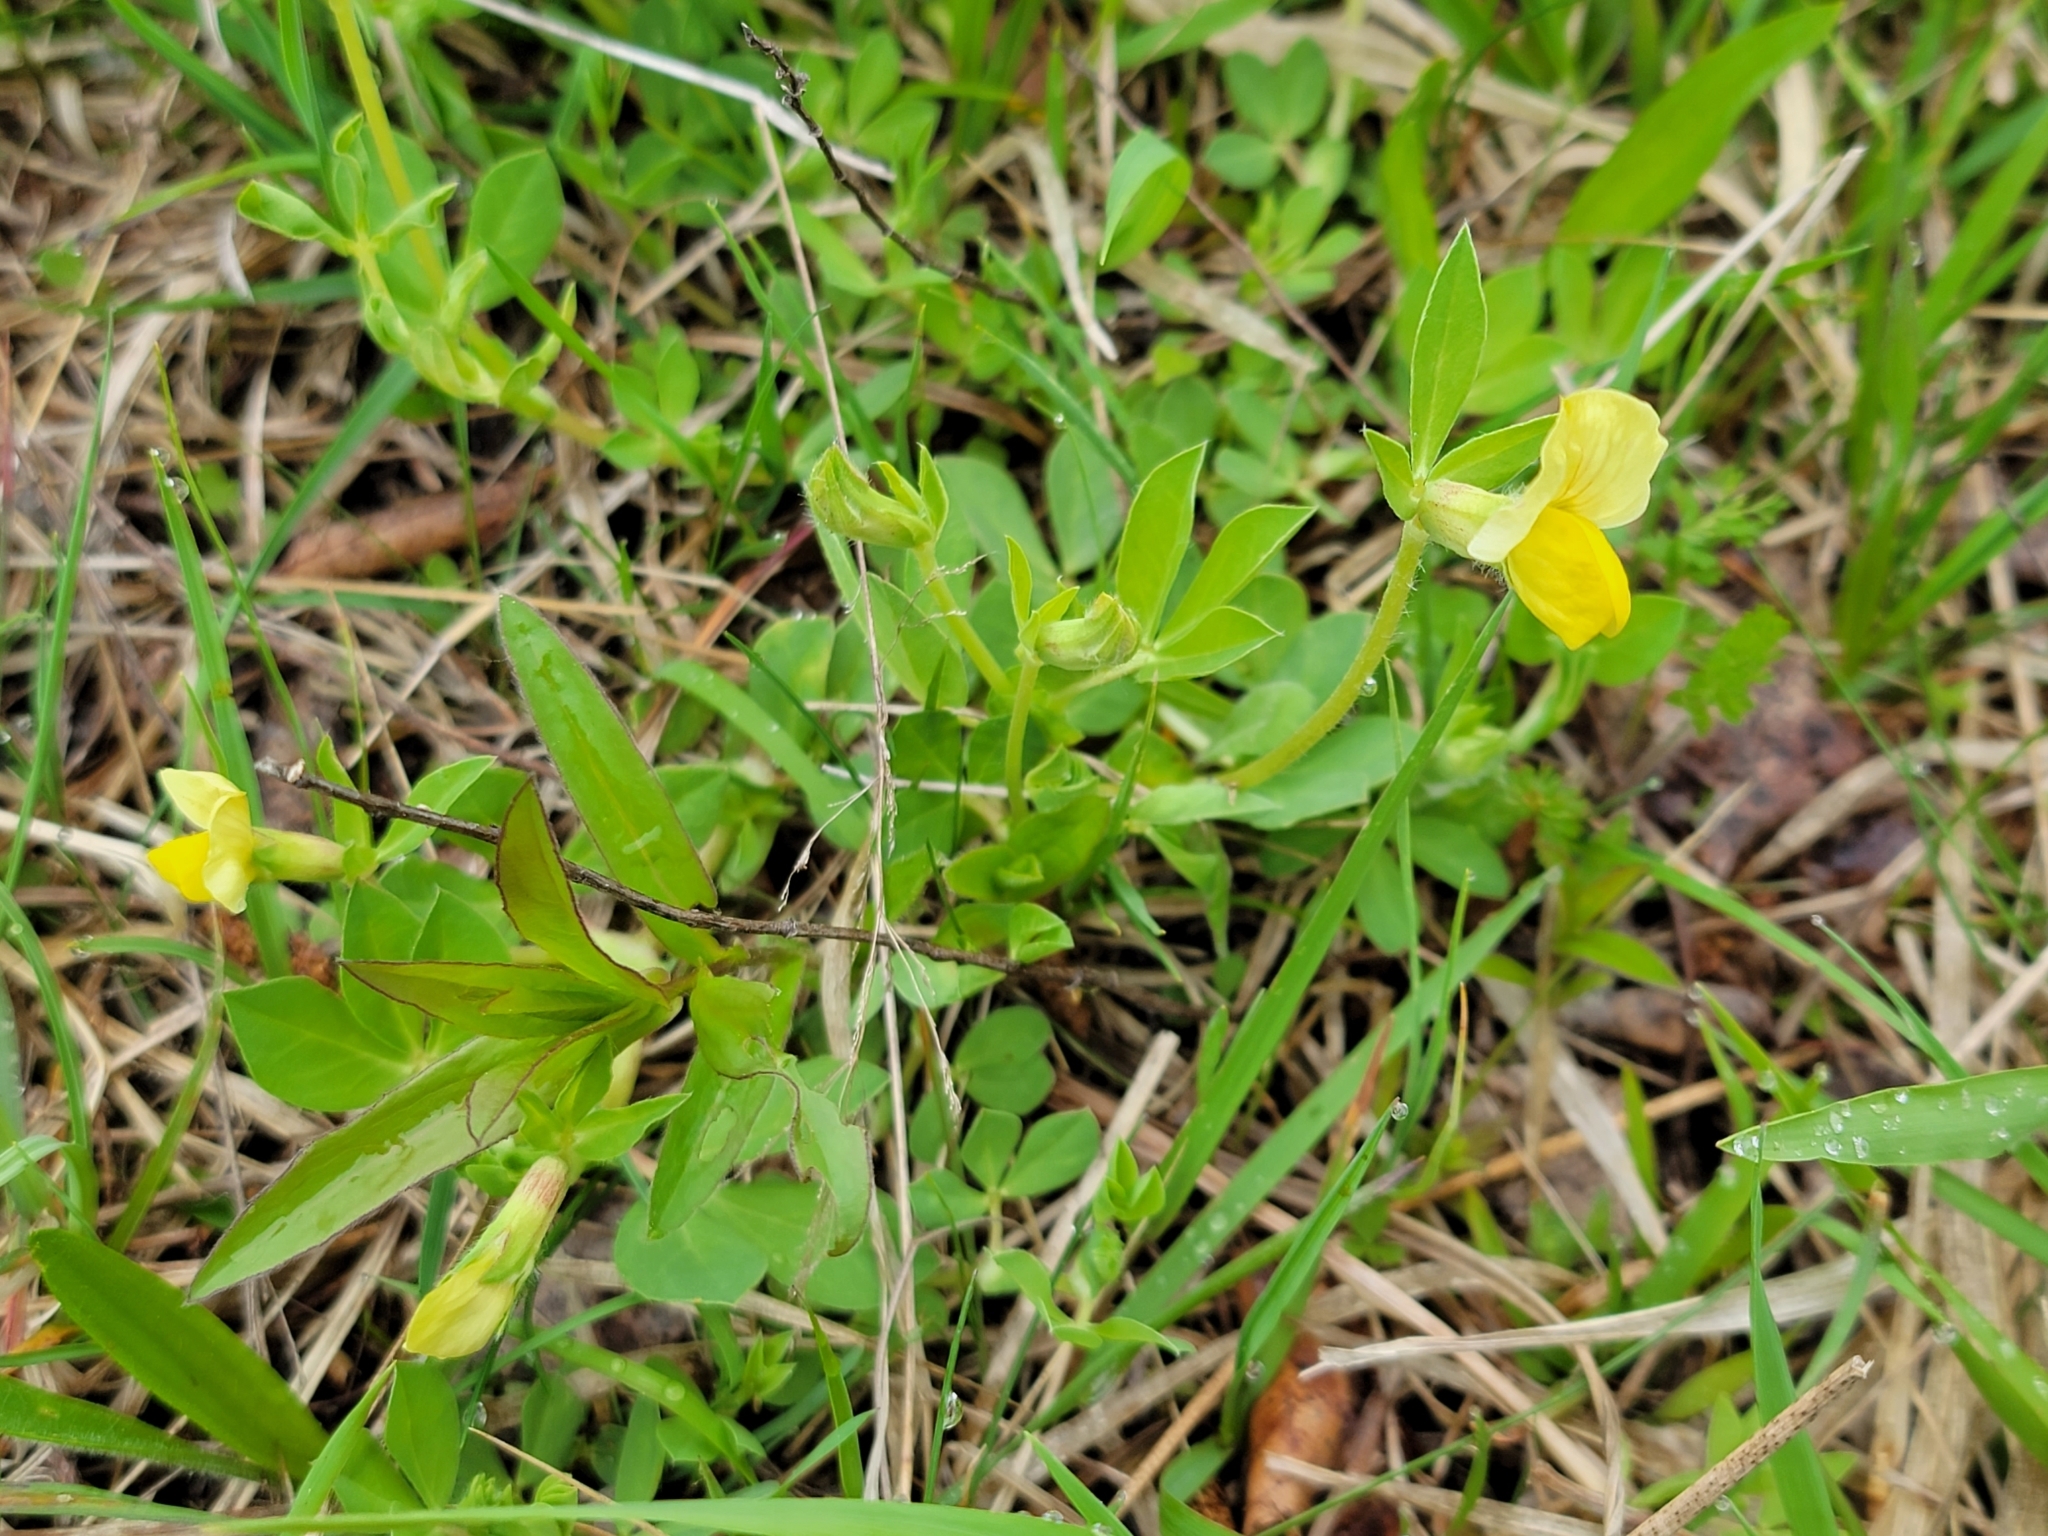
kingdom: Plantae
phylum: Tracheophyta
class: Magnoliopsida
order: Fabales
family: Fabaceae
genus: Lotus
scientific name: Lotus maritimus
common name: Dragon's-teeth
